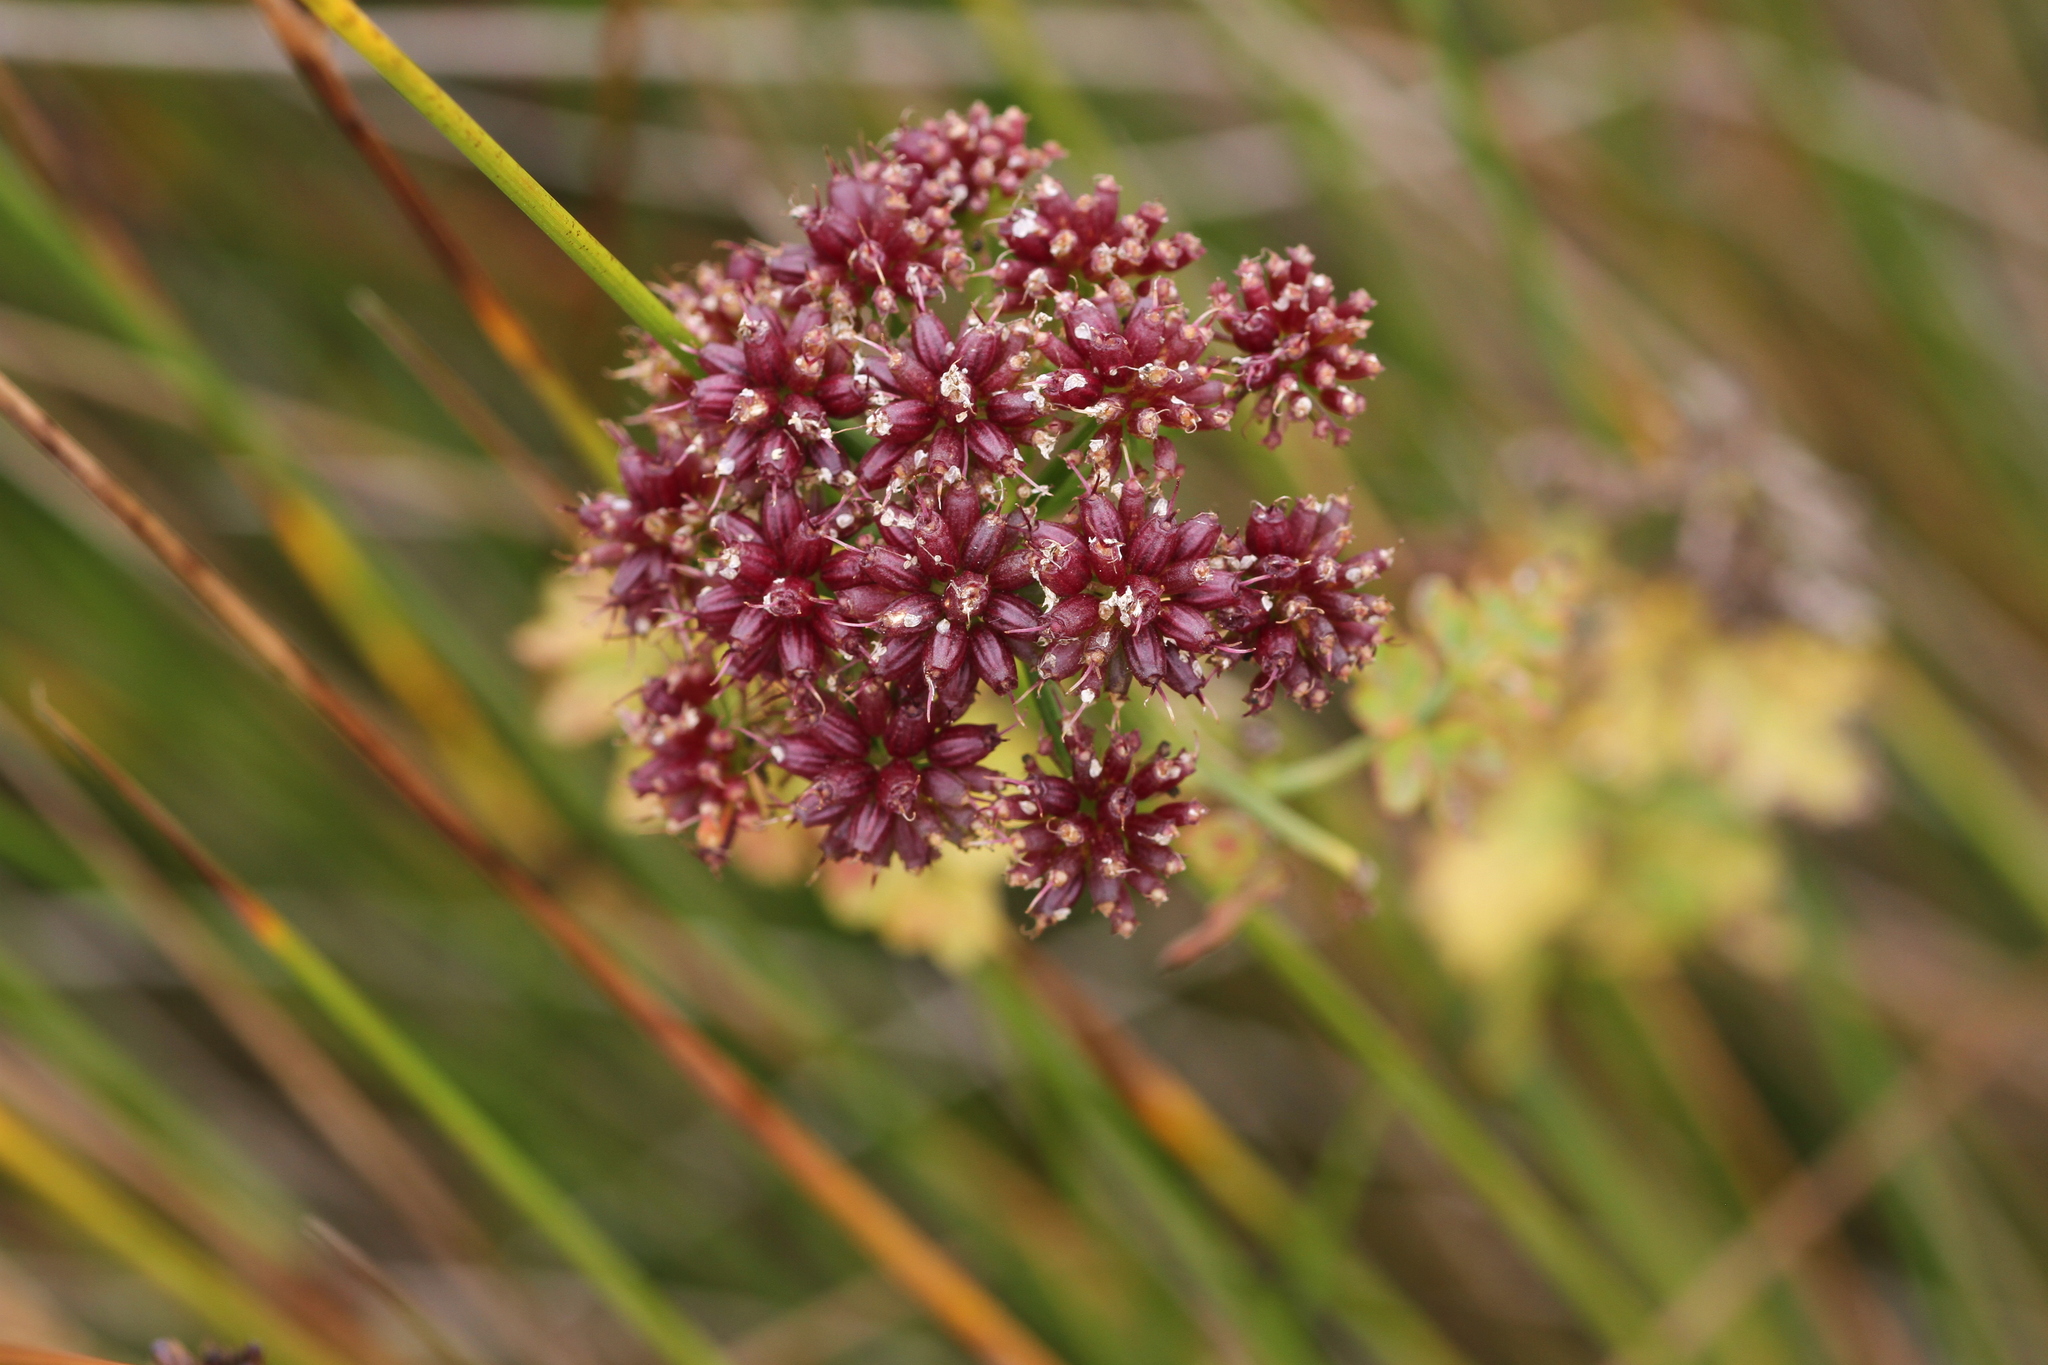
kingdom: Plantae
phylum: Tracheophyta
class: Magnoliopsida
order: Apiales
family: Apiaceae
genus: Oenanthe
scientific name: Oenanthe sarmentosa
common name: American water-parsley
